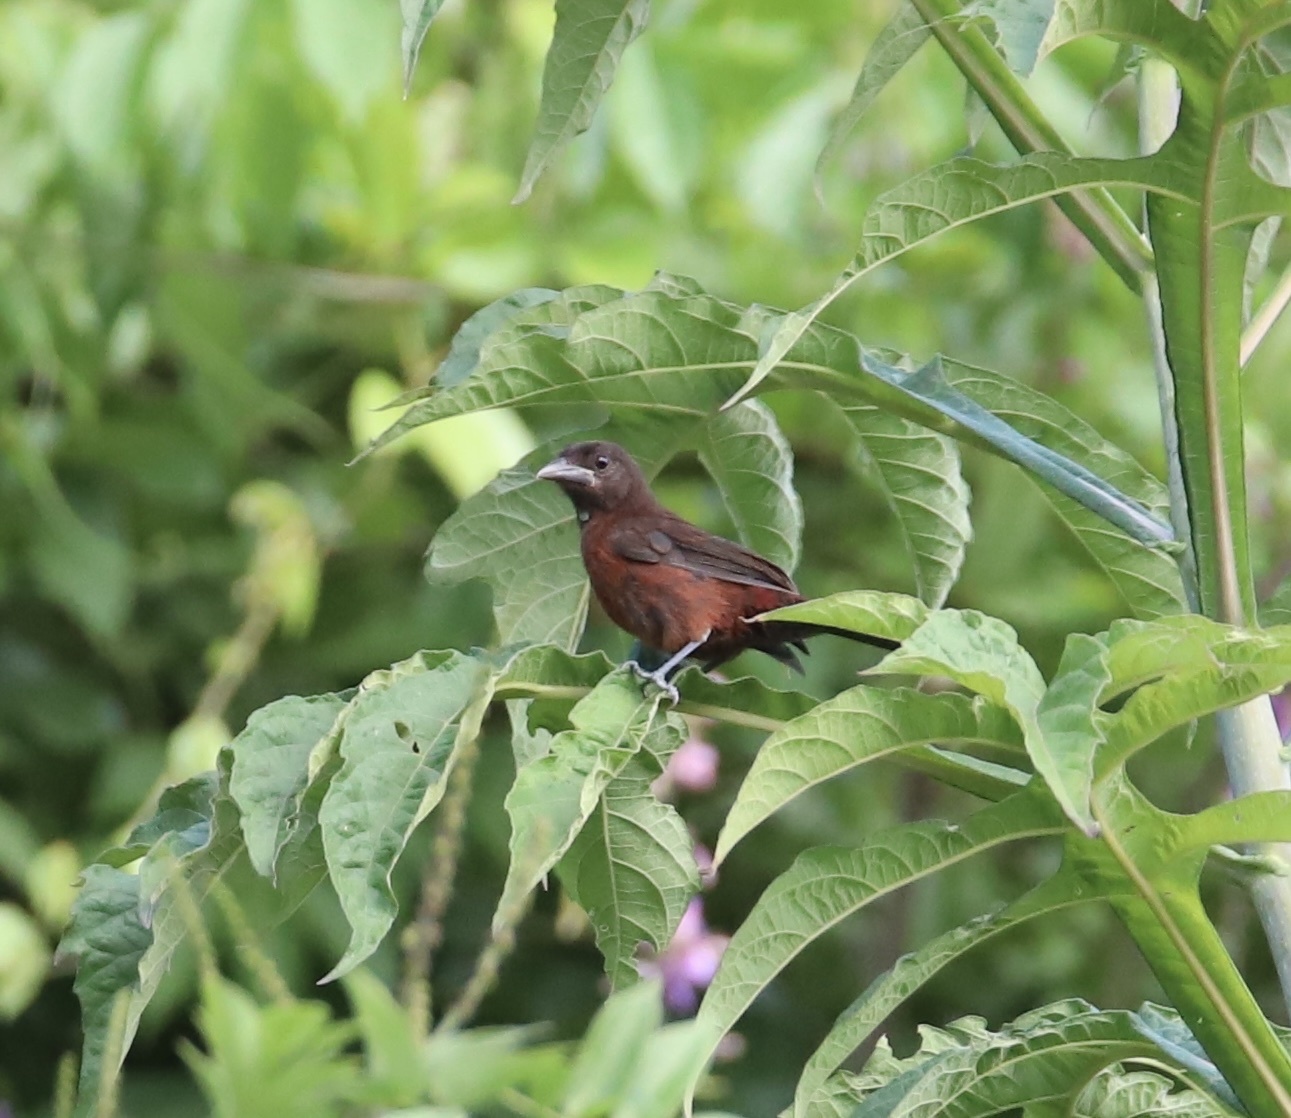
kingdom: Animalia
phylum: Chordata
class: Aves
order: Passeriformes
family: Thraupidae
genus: Ramphocelus
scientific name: Ramphocelus carbo
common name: Silver-beaked tanager
